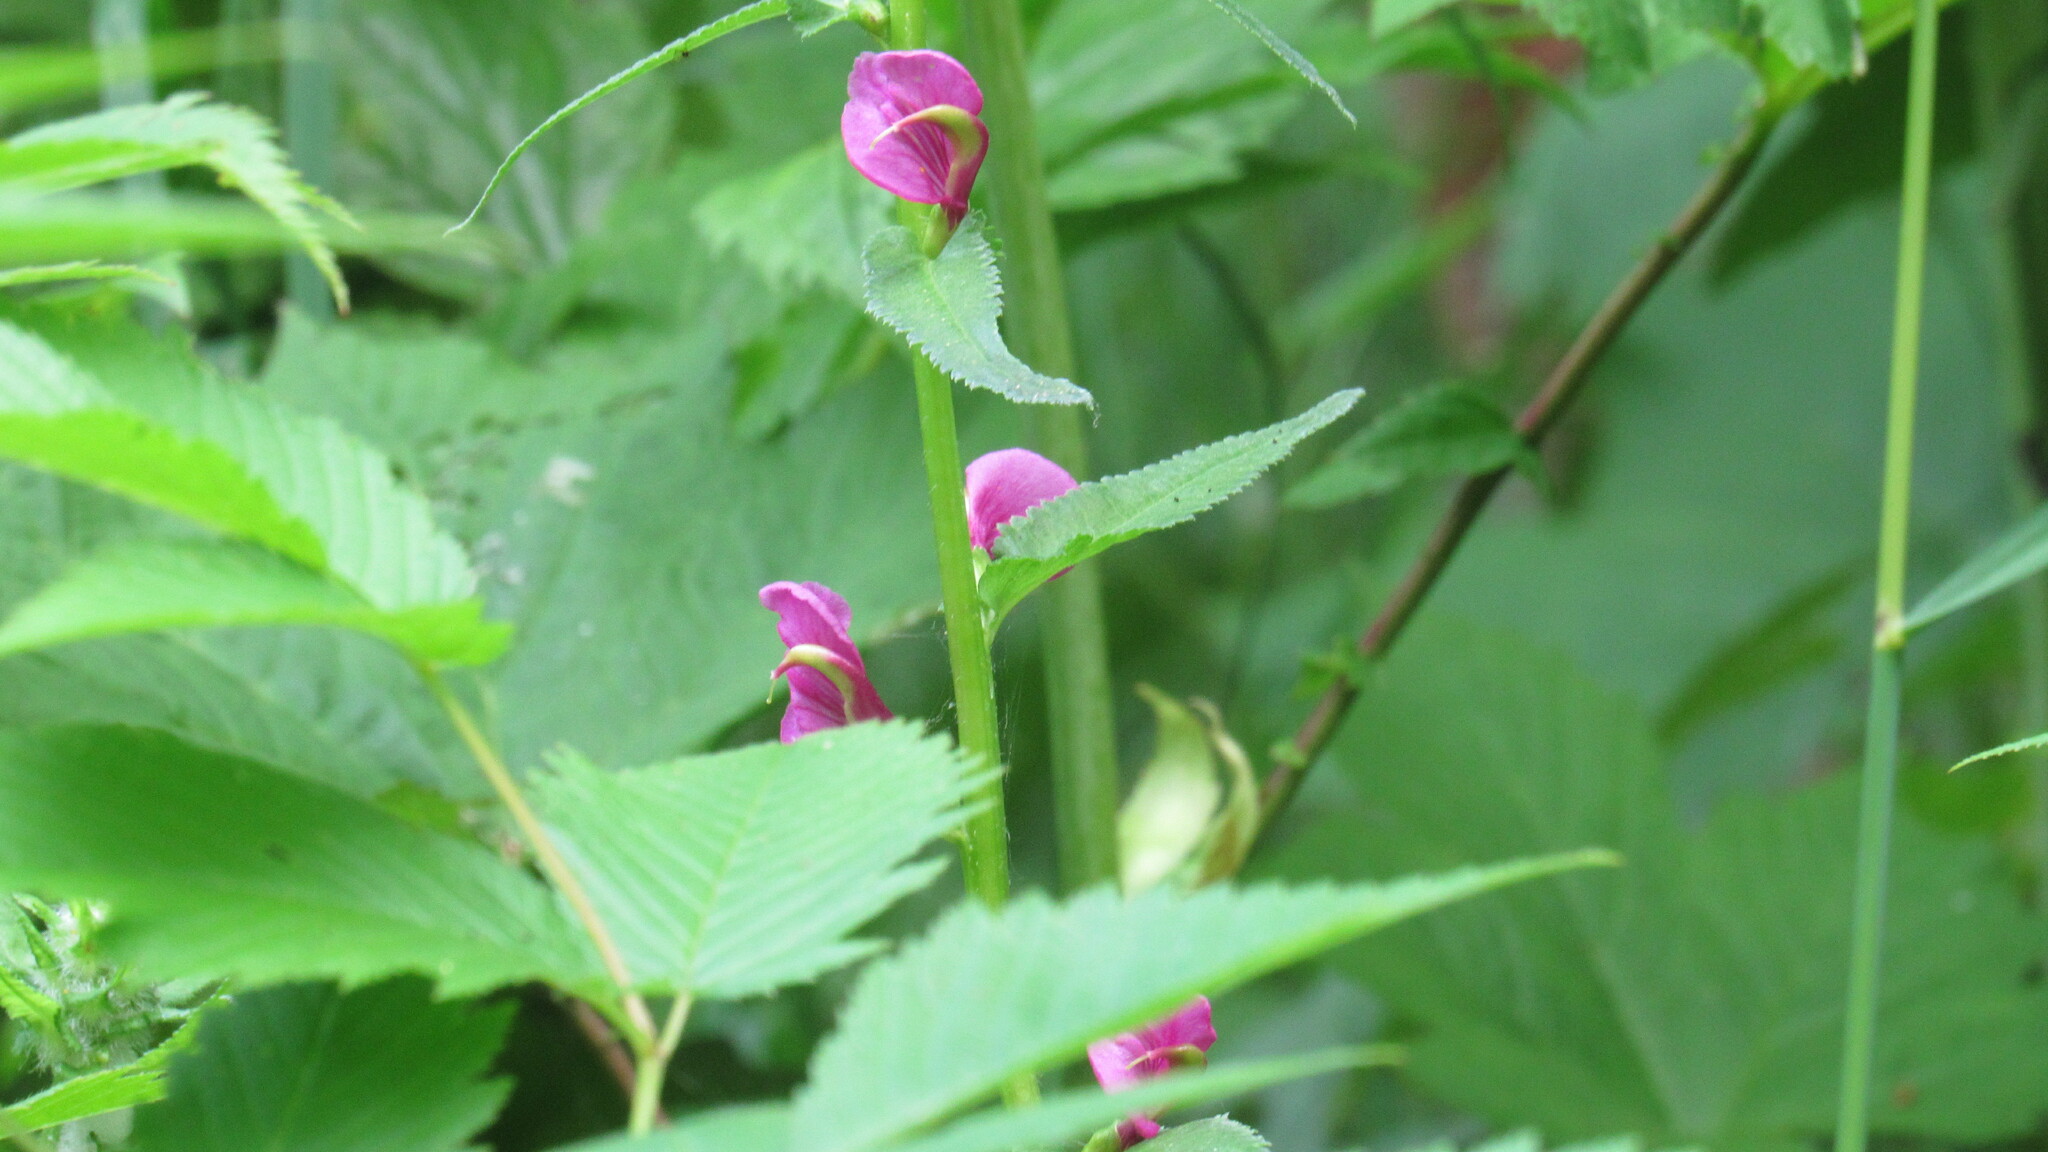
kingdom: Plantae
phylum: Tracheophyta
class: Magnoliopsida
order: Lamiales
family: Orobanchaceae
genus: Pedicularis
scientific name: Pedicularis resupinata
